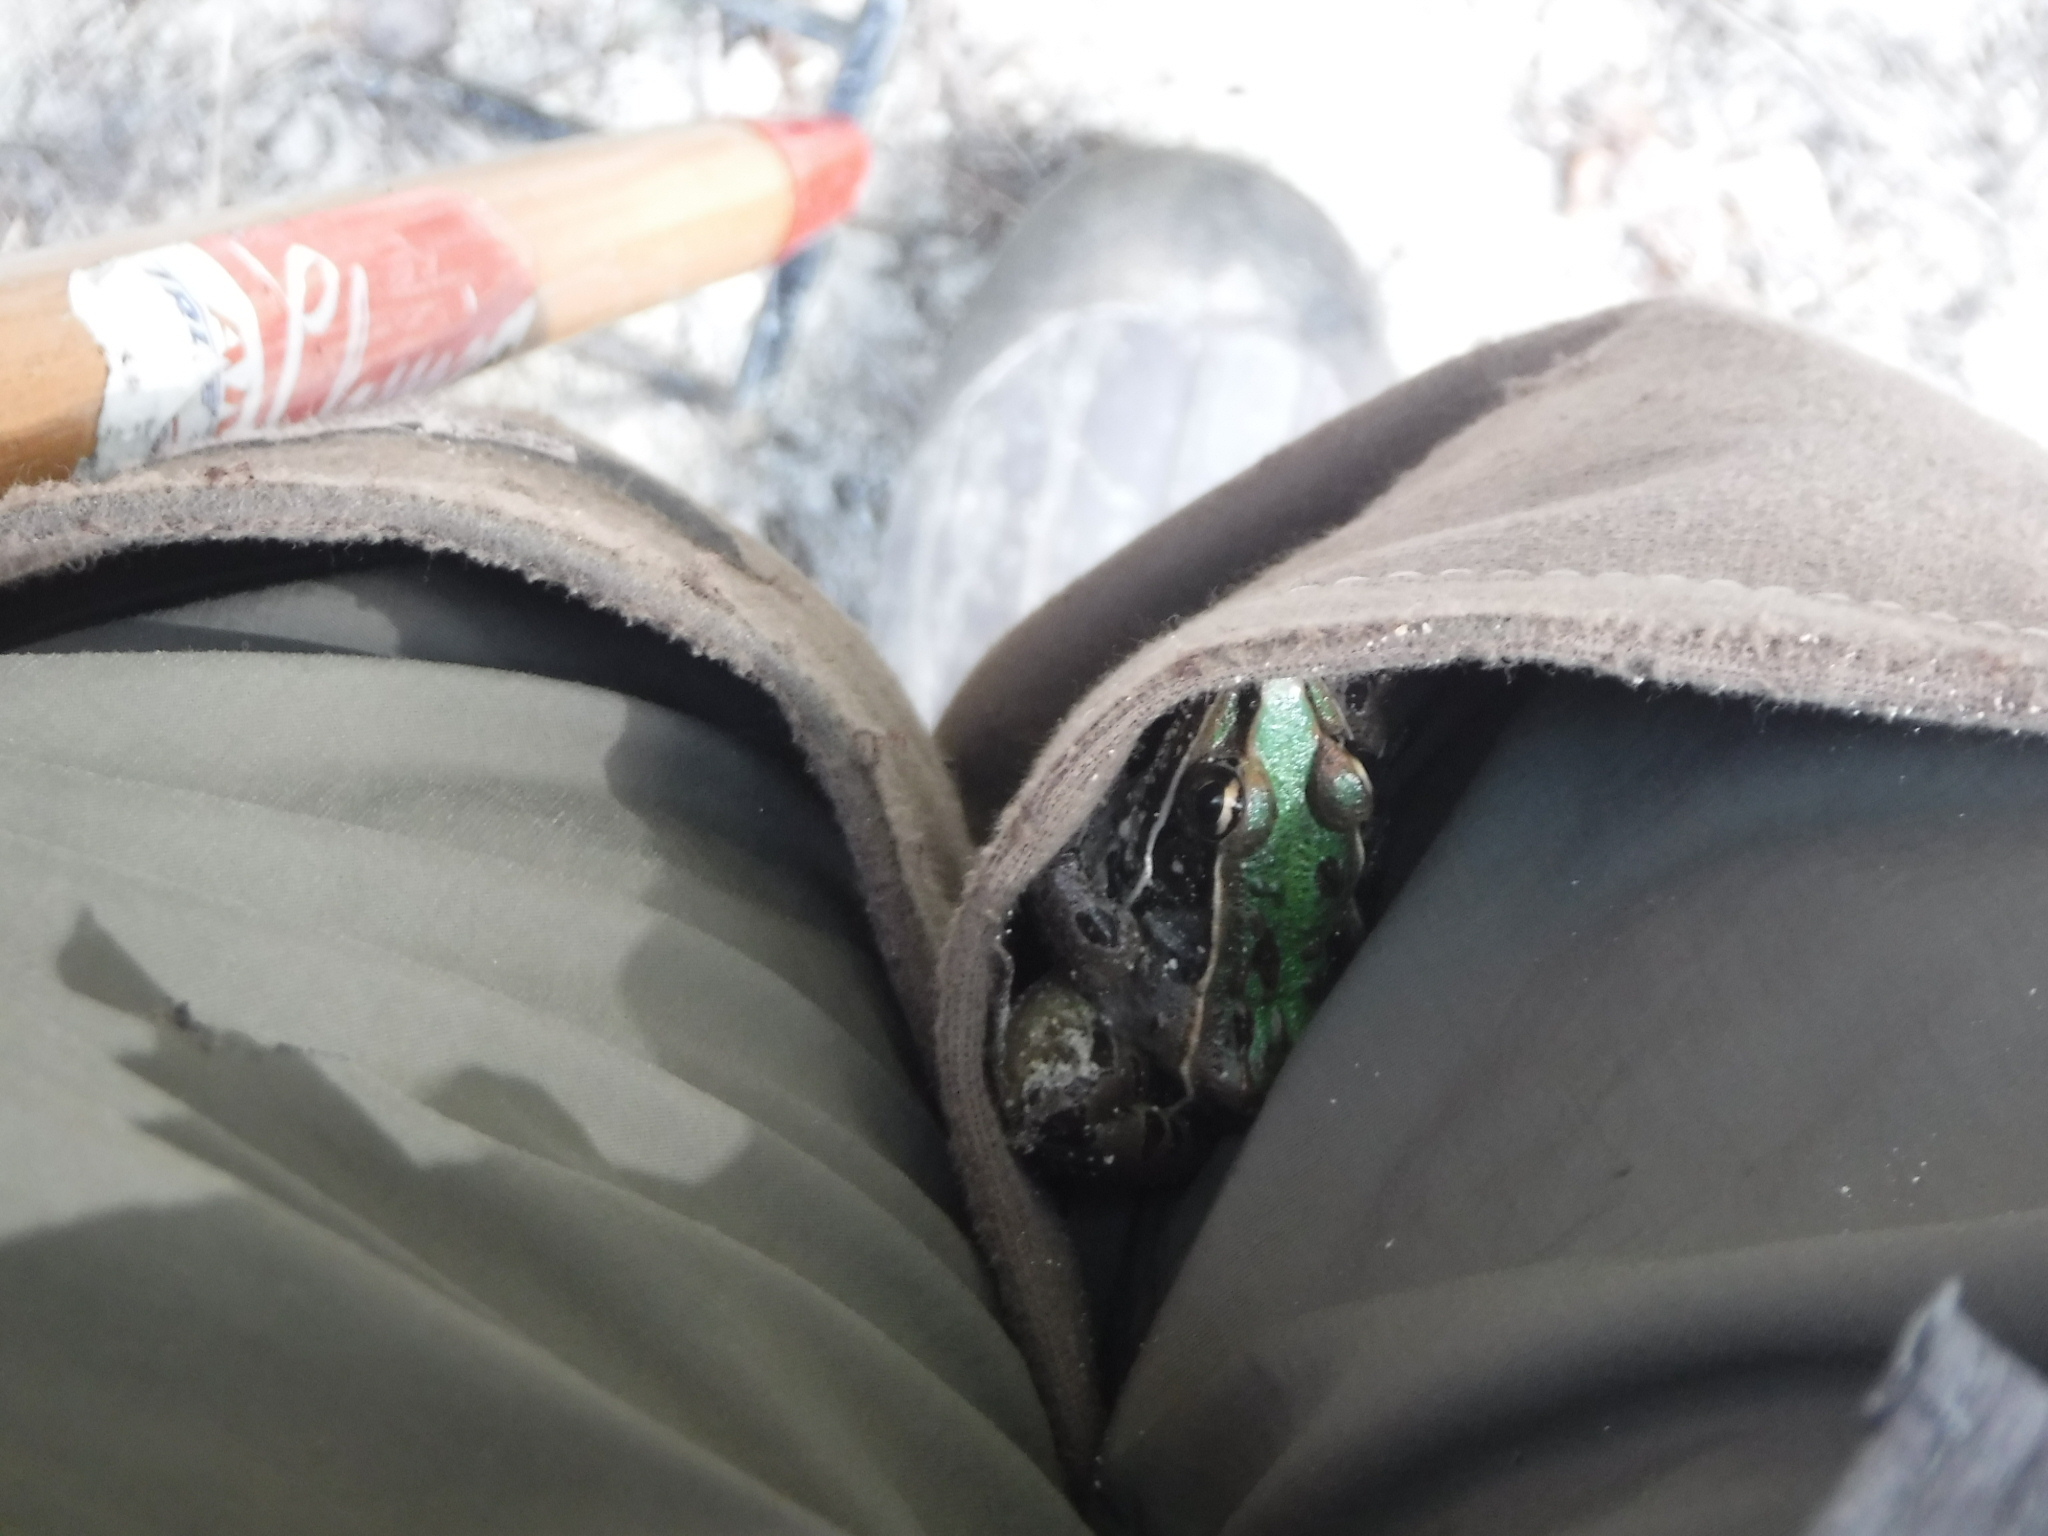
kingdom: Animalia
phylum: Chordata
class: Amphibia
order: Anura
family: Ranidae
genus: Lithobates
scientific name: Lithobates sphenocephalus
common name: Southern leopard frog
